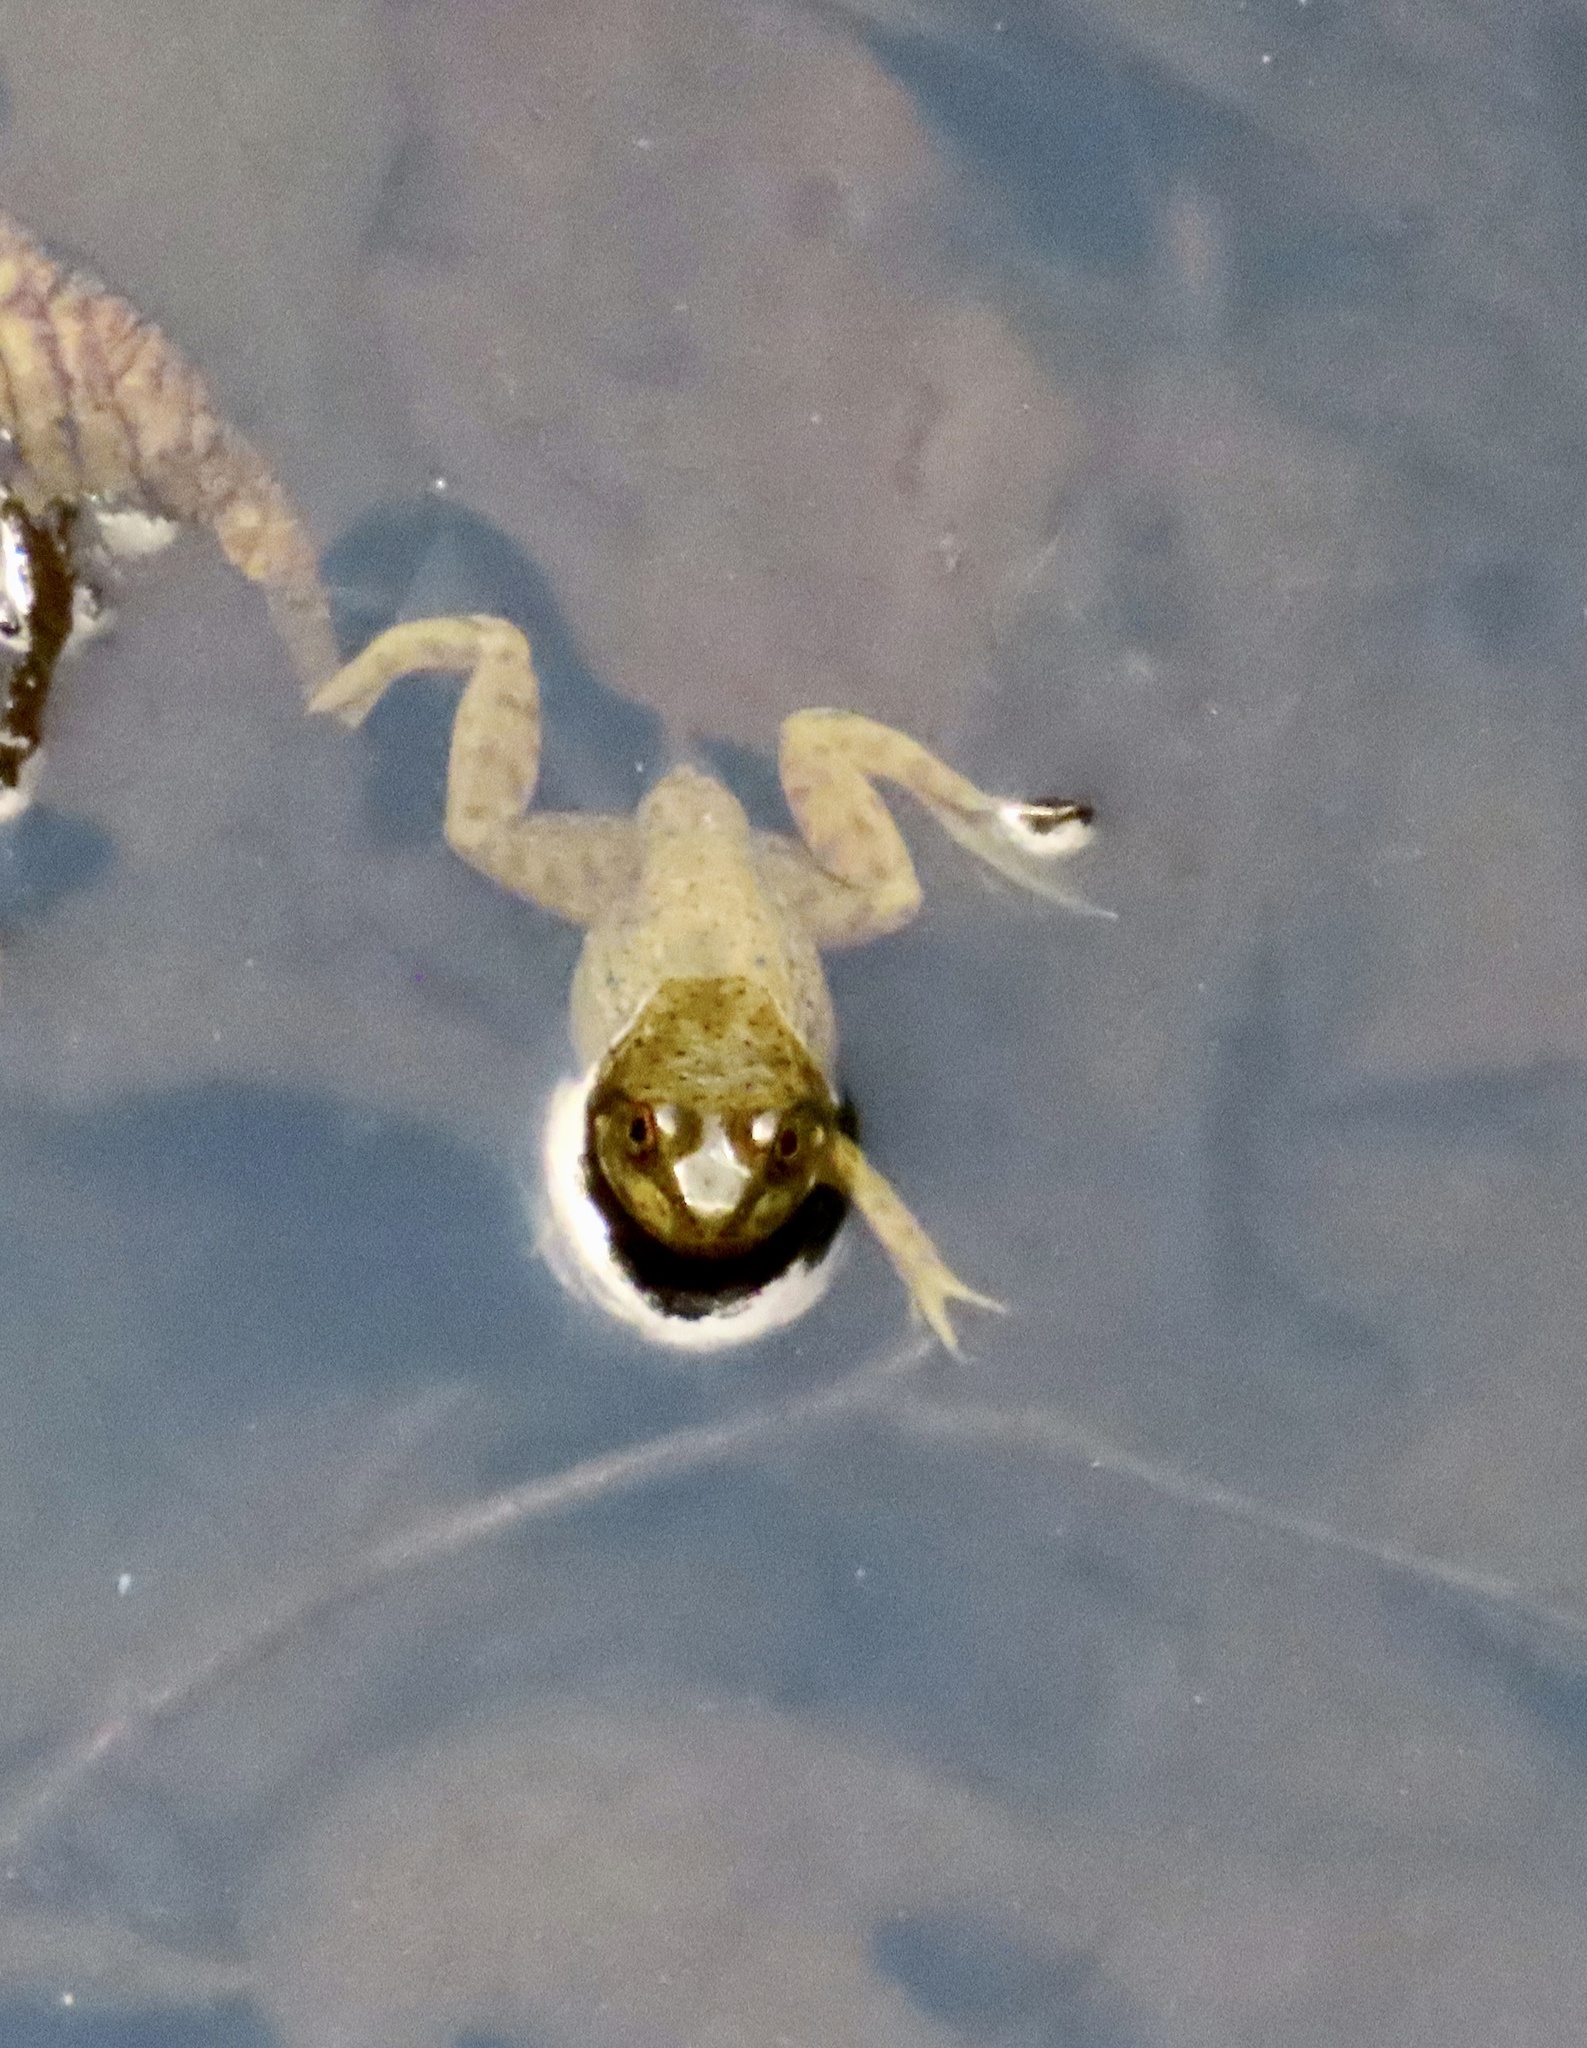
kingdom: Animalia
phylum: Chordata
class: Amphibia
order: Anura
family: Ranidae
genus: Lithobates
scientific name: Lithobates catesbeianus
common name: American bullfrog
